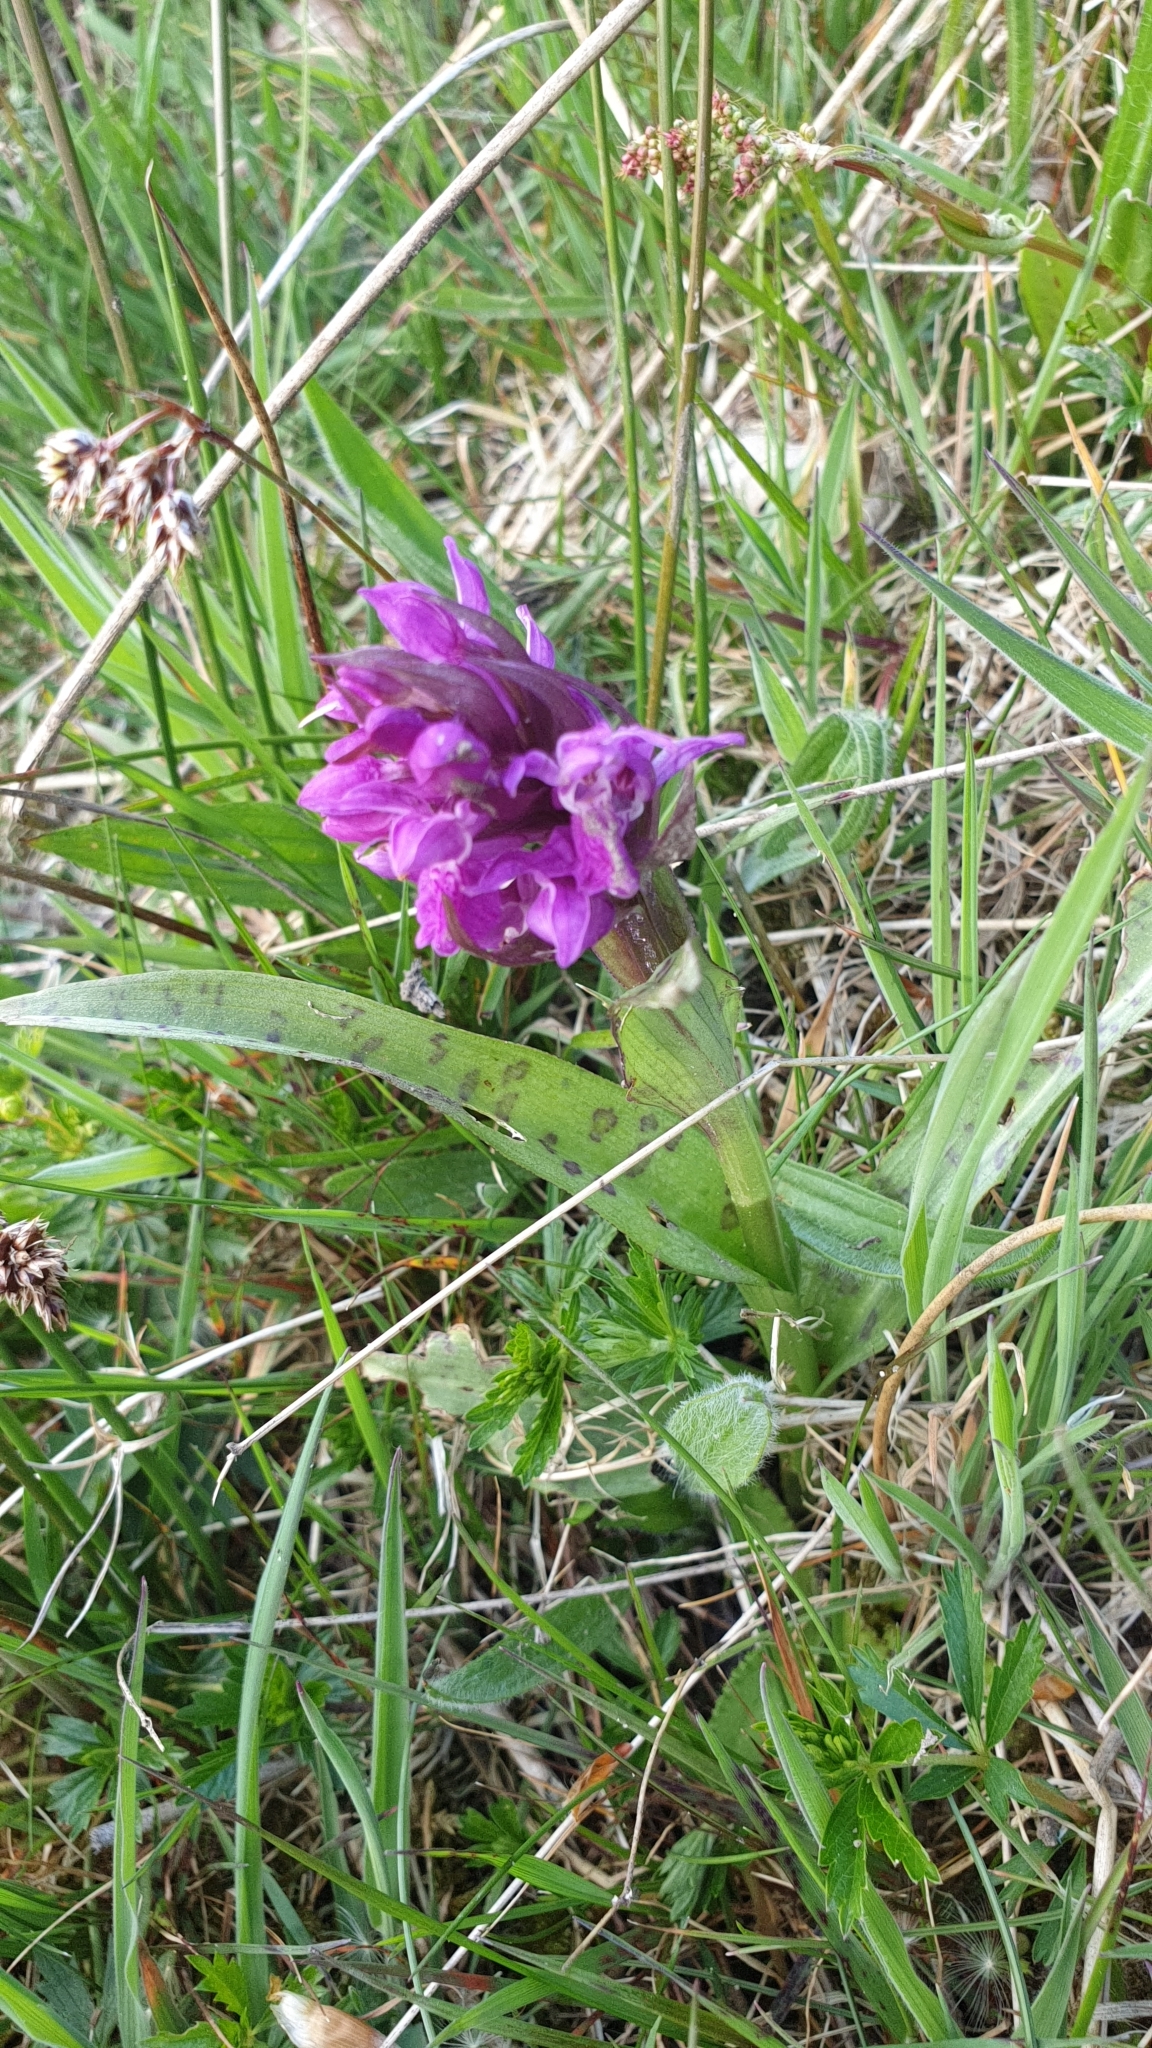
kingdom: Plantae
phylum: Tracheophyta
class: Liliopsida
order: Asparagales
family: Orchidaceae
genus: Dactylorhiza
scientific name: Dactylorhiza majalis
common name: Marsh orchid
